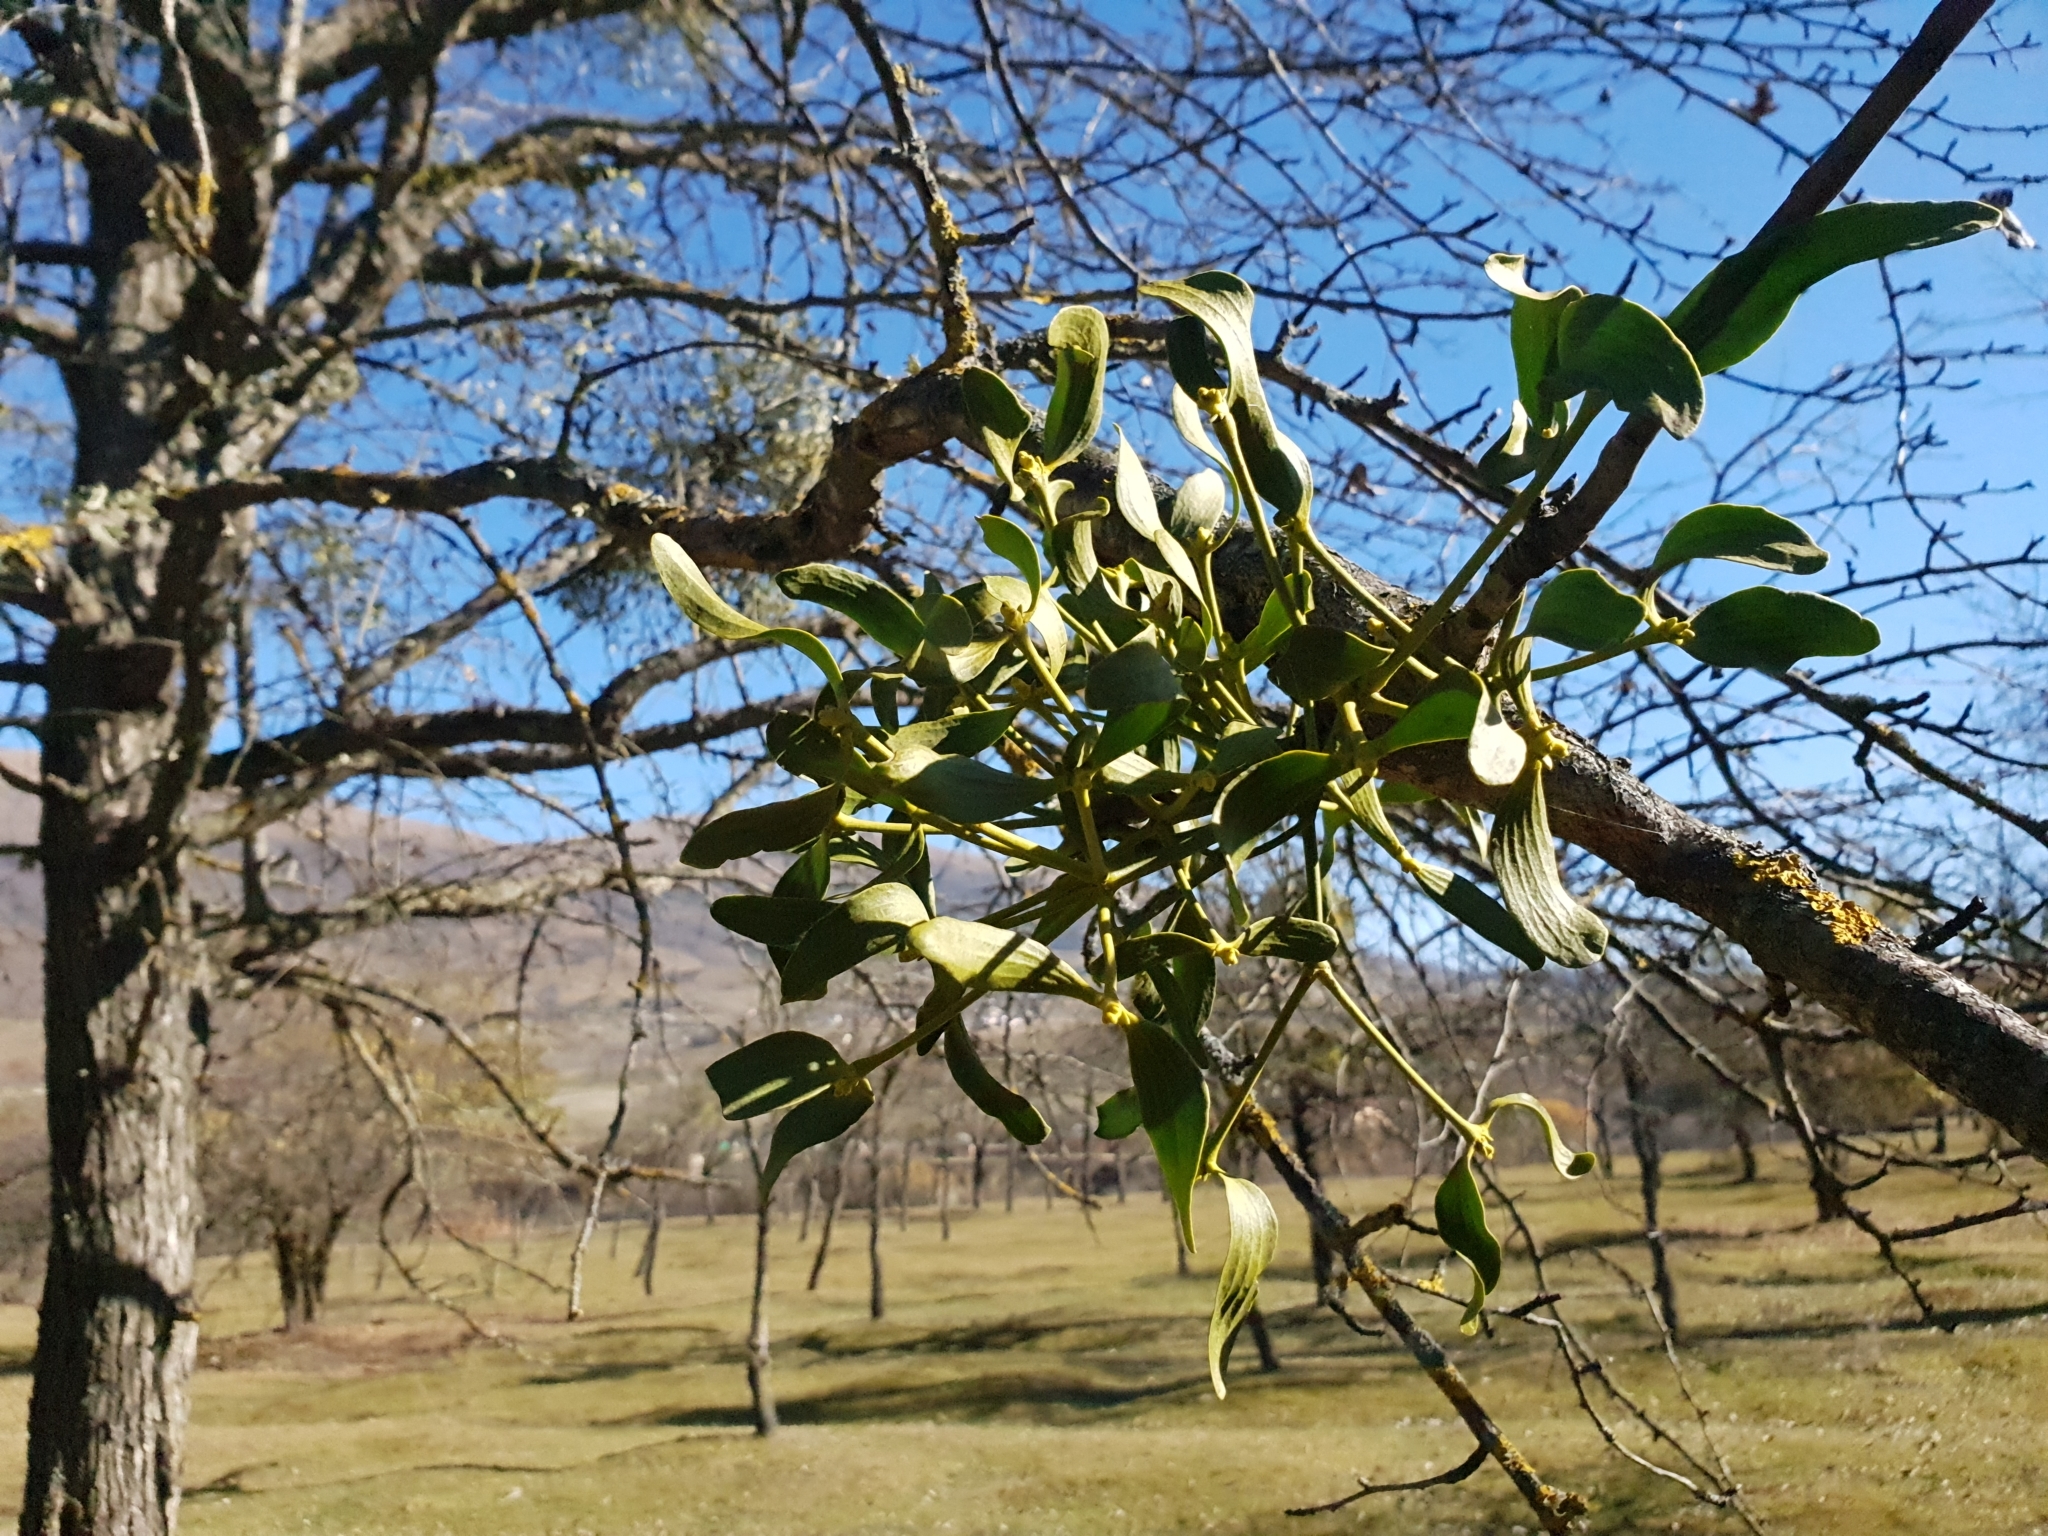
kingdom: Plantae
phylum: Tracheophyta
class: Magnoliopsida
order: Santalales
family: Viscaceae
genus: Viscum
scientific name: Viscum album
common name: Mistletoe
